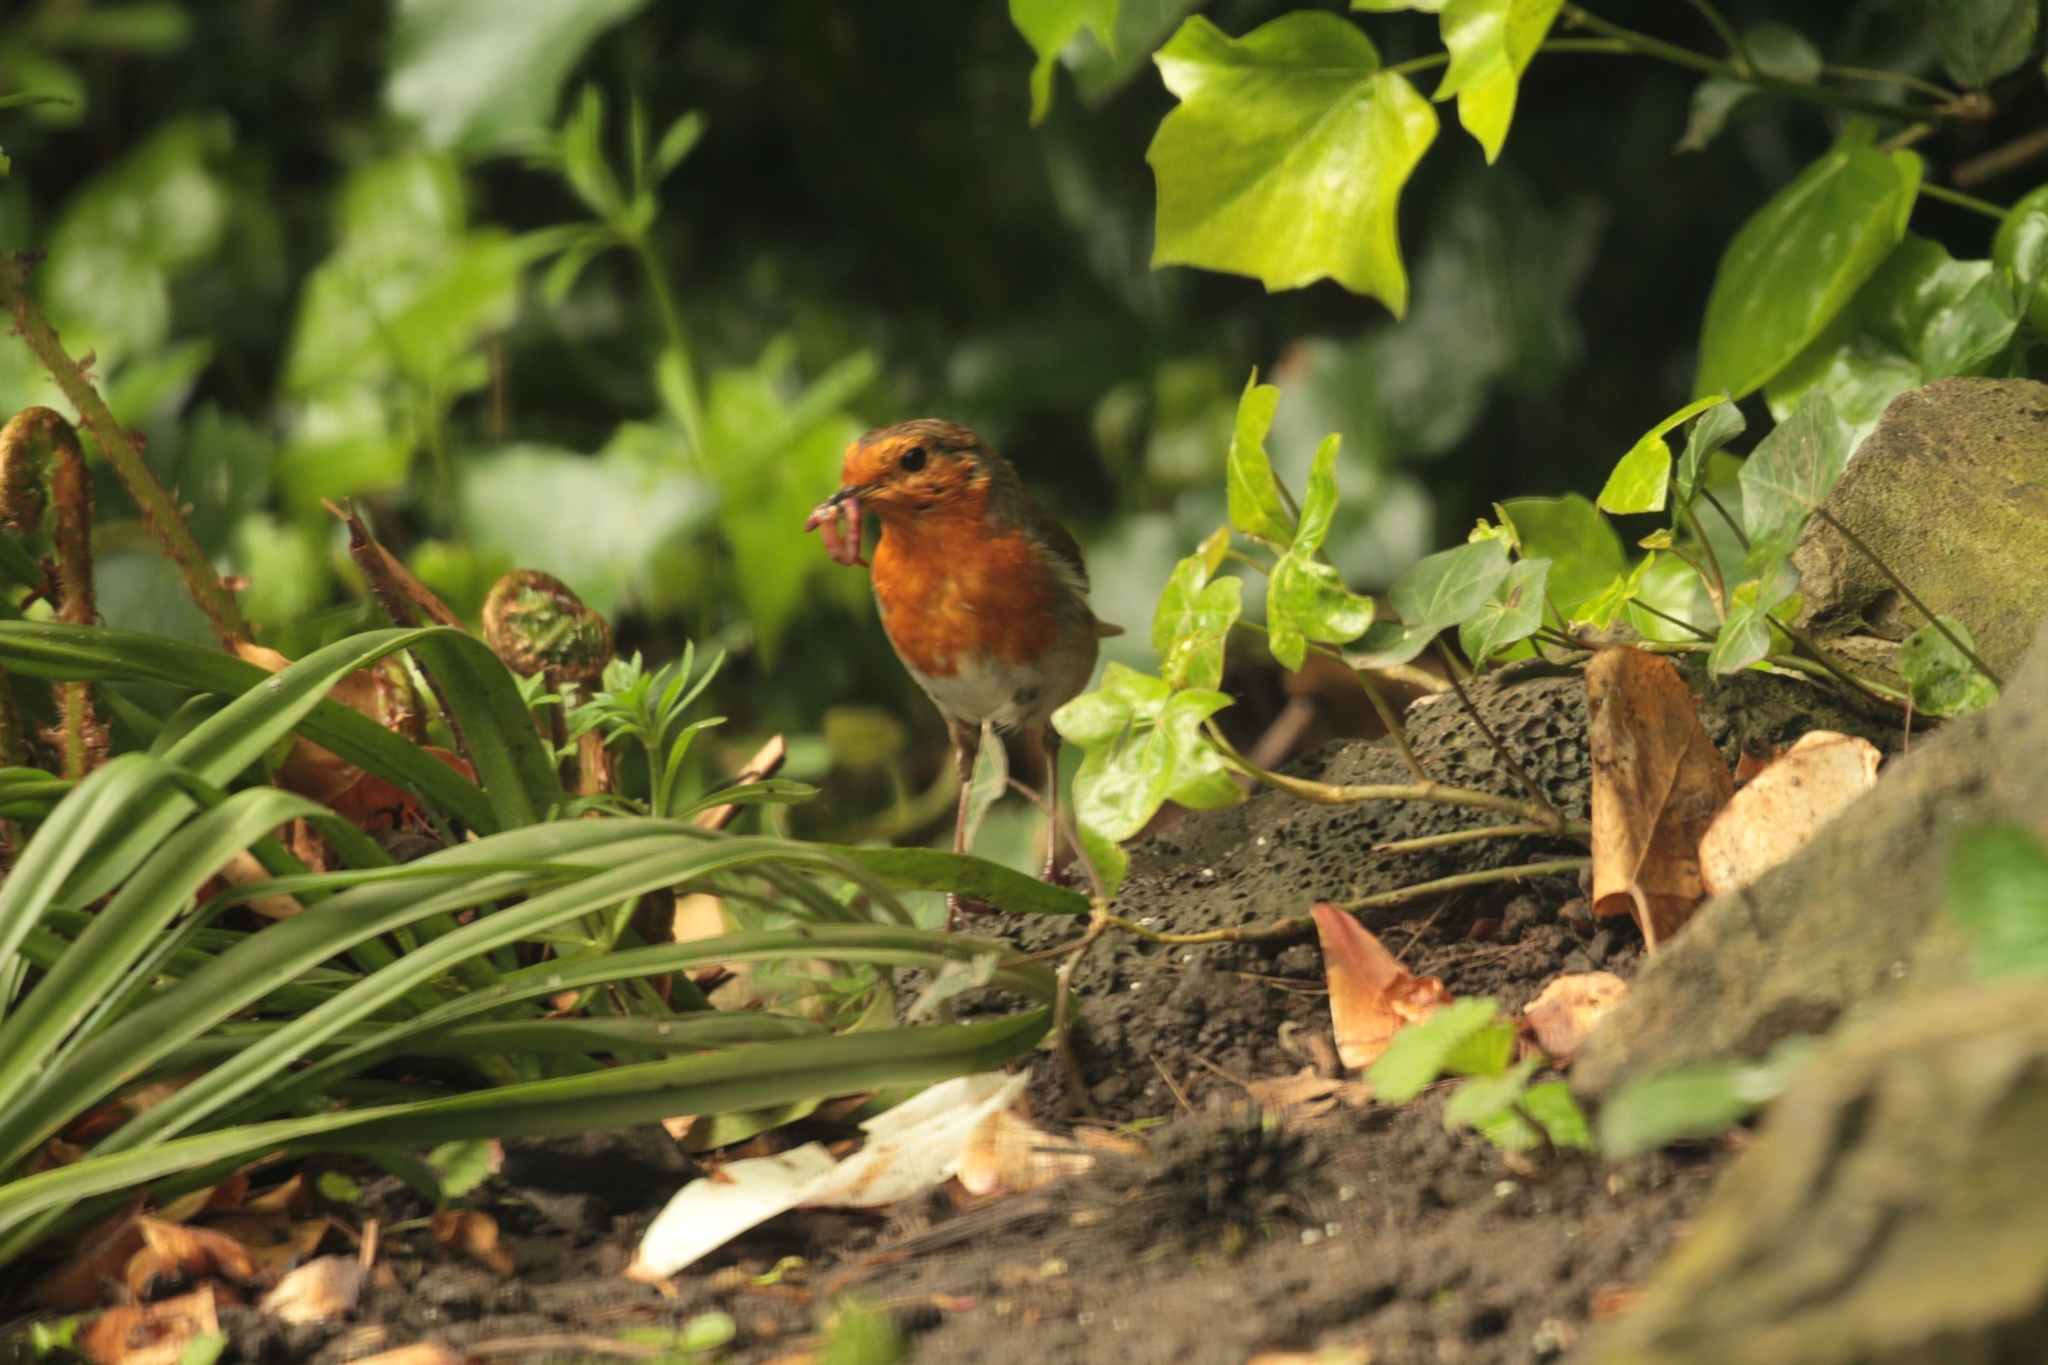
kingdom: Animalia
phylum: Chordata
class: Aves
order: Passeriformes
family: Muscicapidae
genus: Erithacus
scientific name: Erithacus rubecula
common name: European robin
